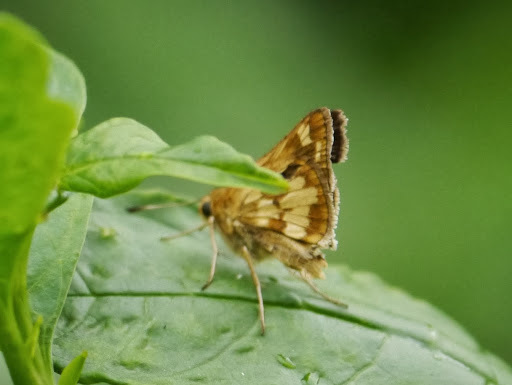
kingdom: Animalia
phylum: Arthropoda
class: Insecta
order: Lepidoptera
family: Hesperiidae
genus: Polites
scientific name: Polites coras
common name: Peck's skipper
